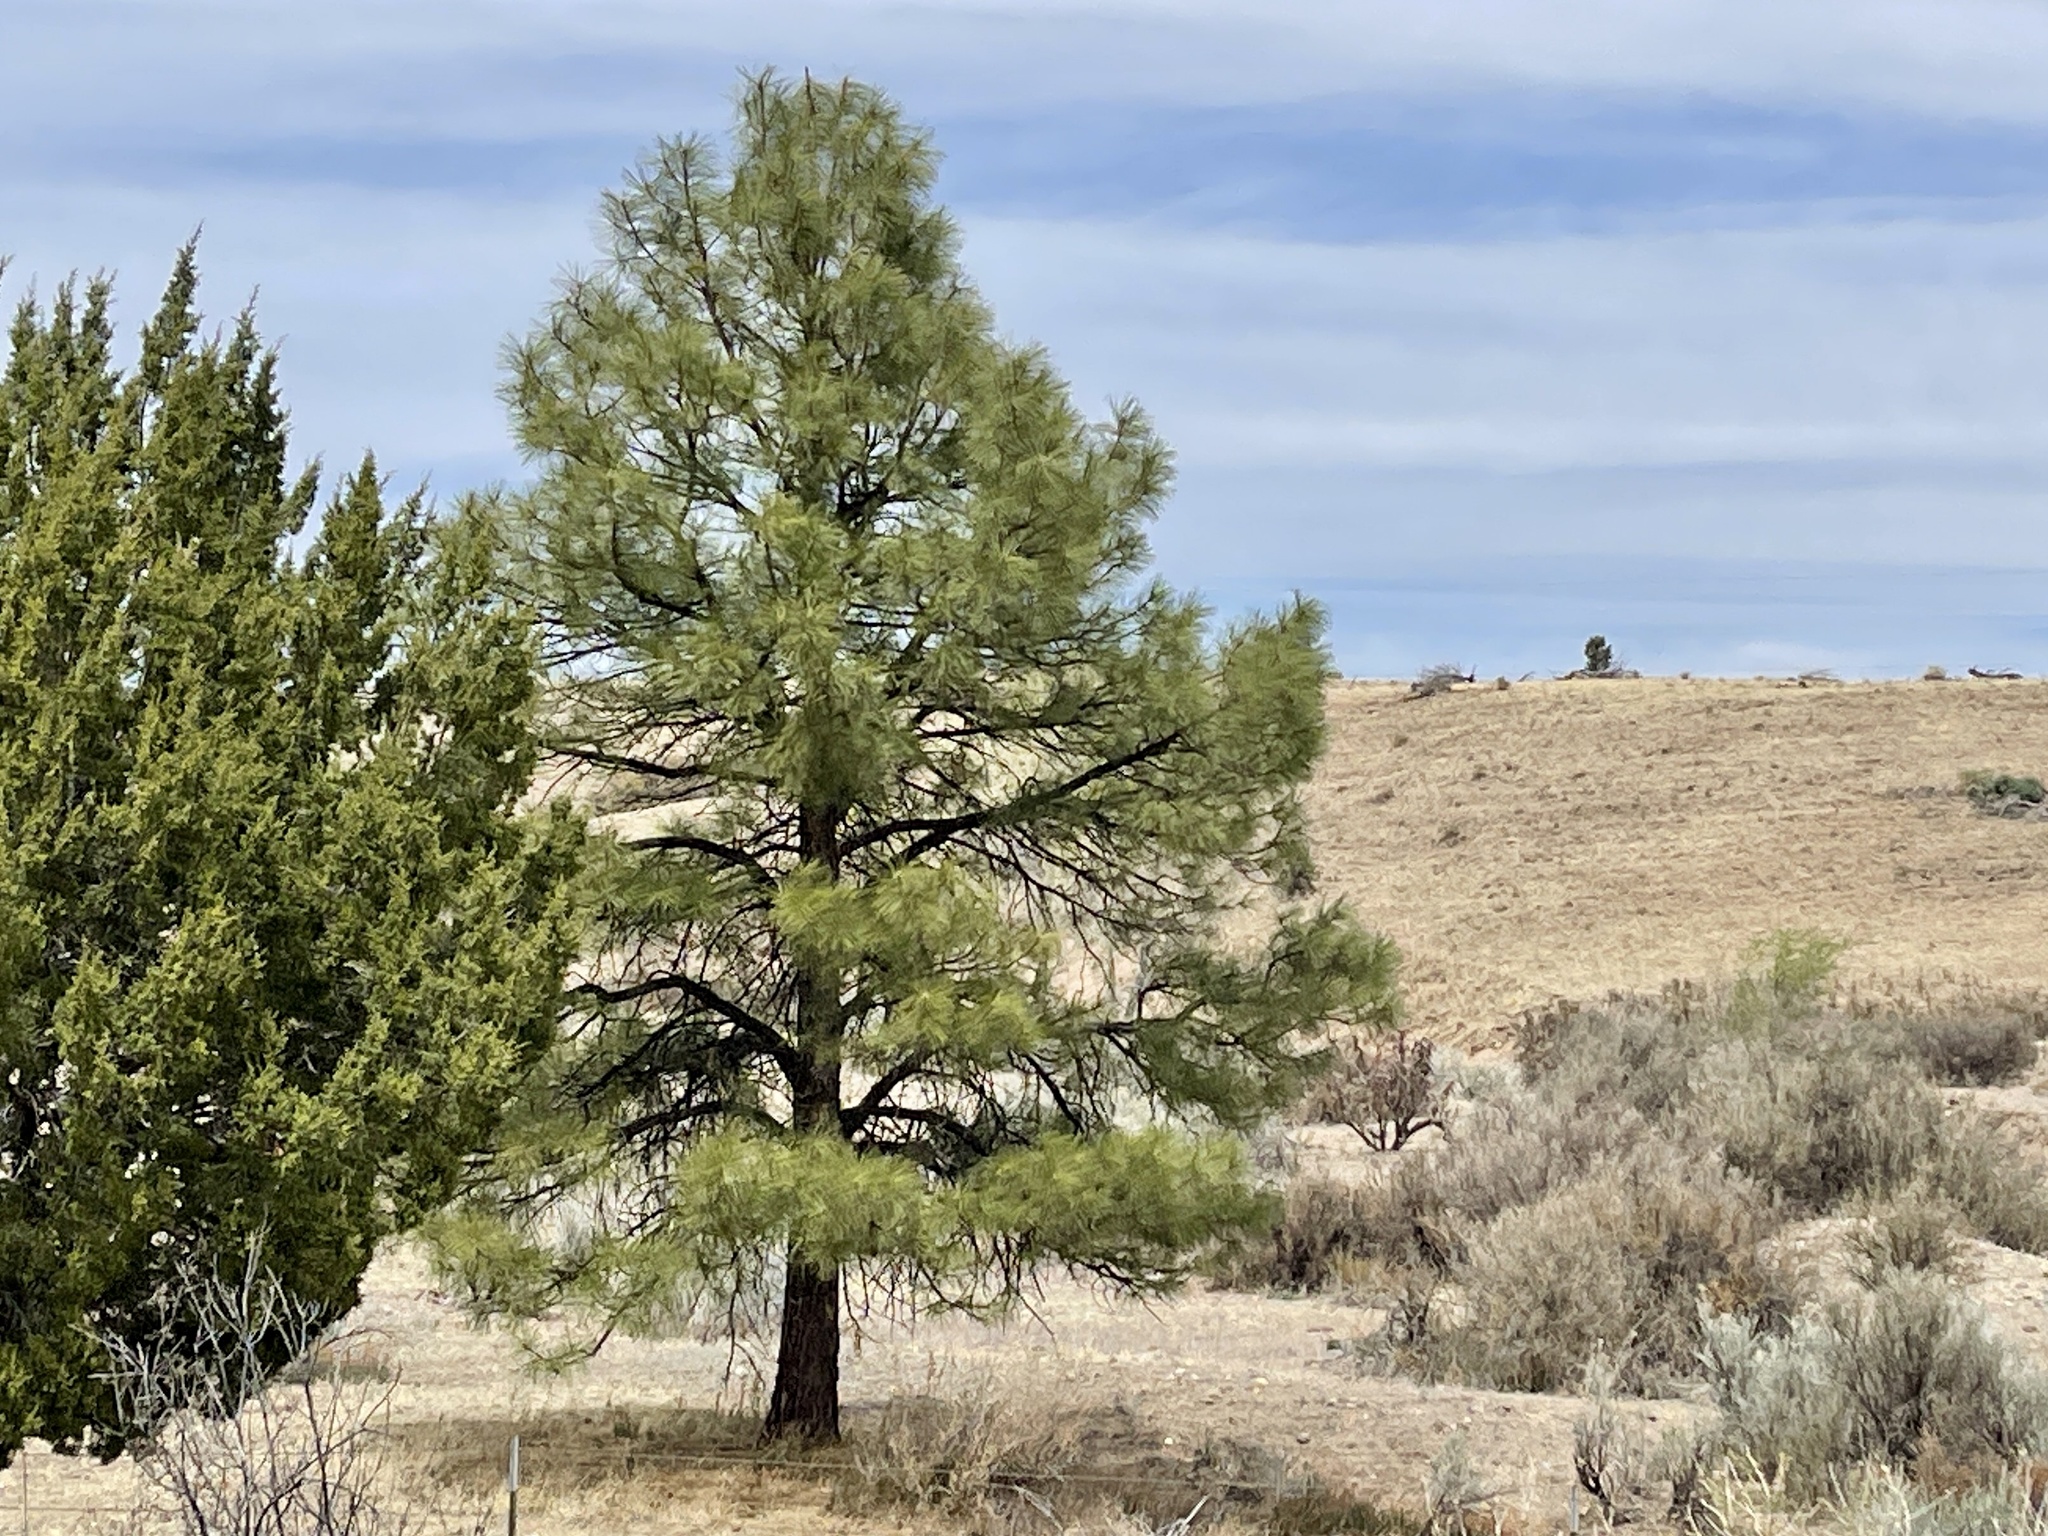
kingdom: Plantae
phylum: Tracheophyta
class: Pinopsida
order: Pinales
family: Pinaceae
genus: Pinus
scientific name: Pinus ponderosa
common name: Western yellow-pine
